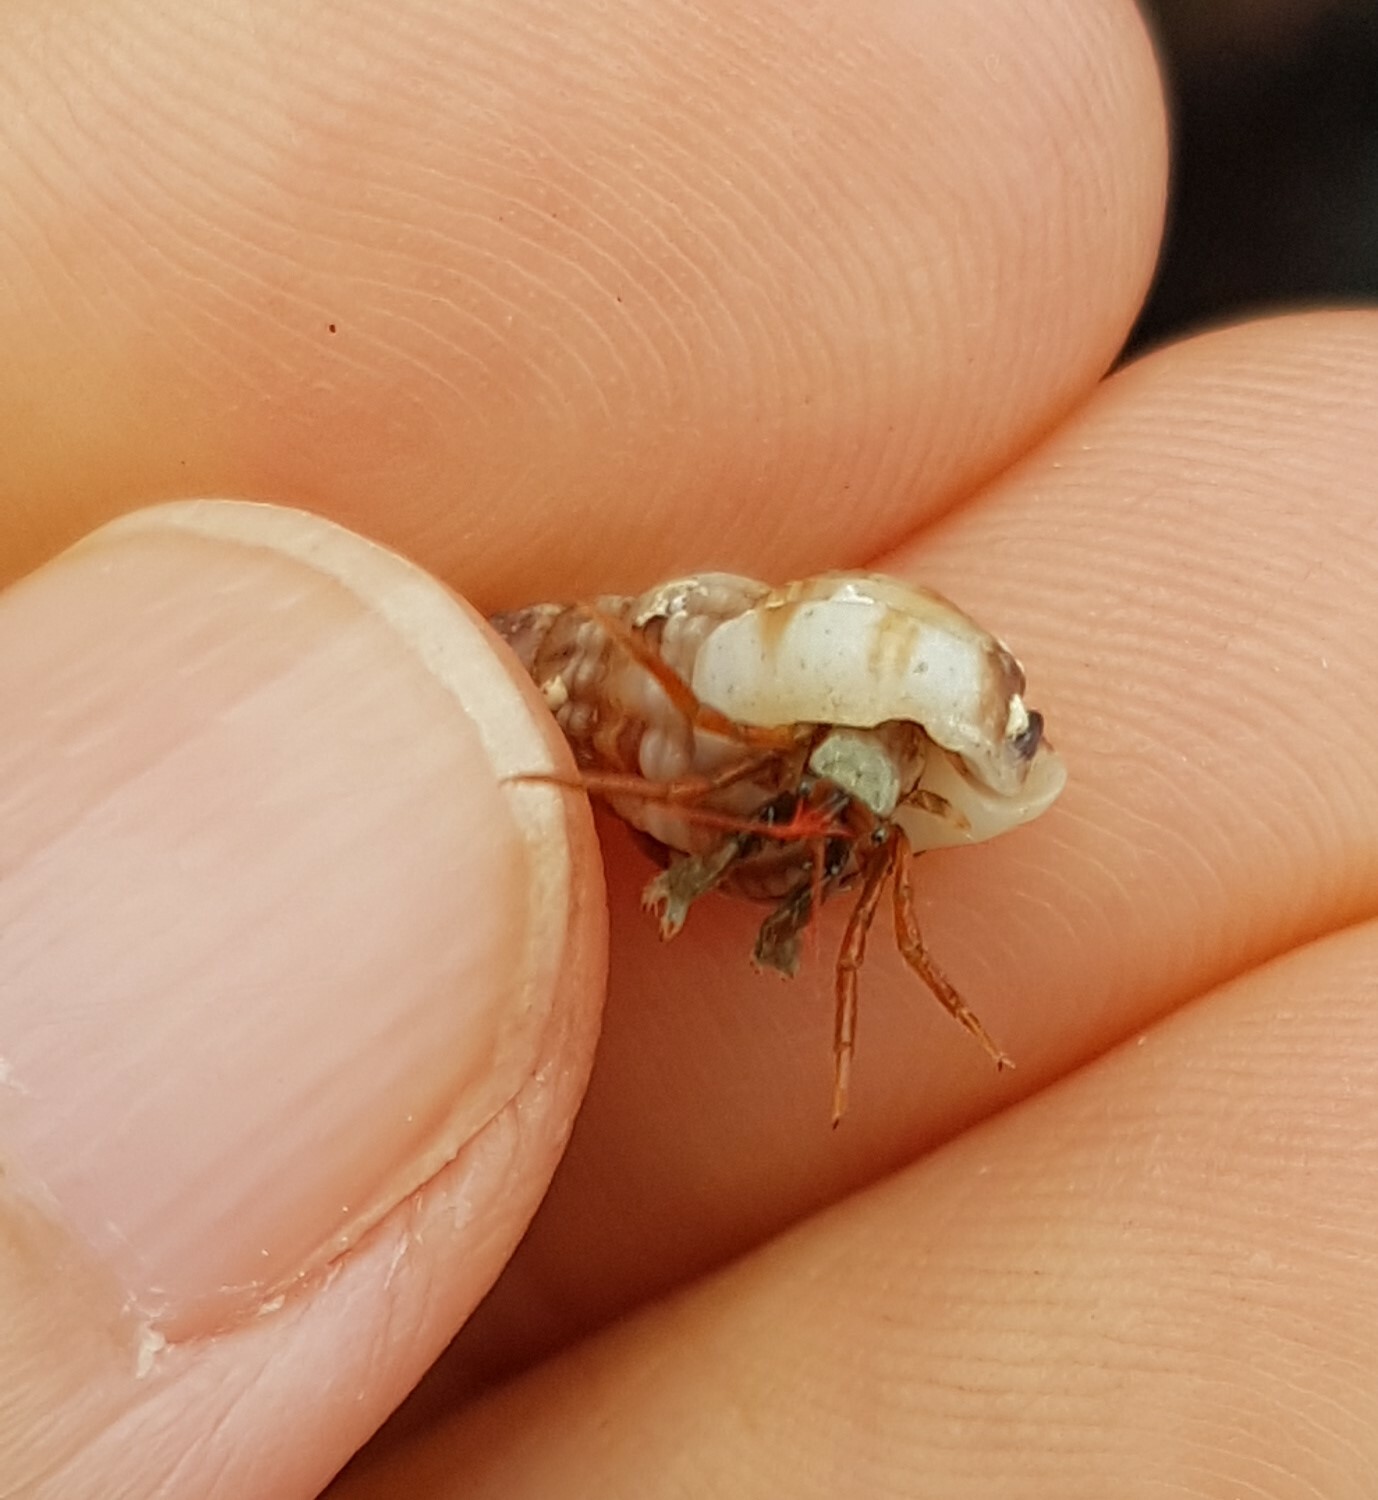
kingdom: Animalia
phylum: Arthropoda
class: Malacostraca
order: Decapoda
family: Diogenidae
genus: Clibanarius
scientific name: Clibanarius erythropus
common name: Hermit crab
